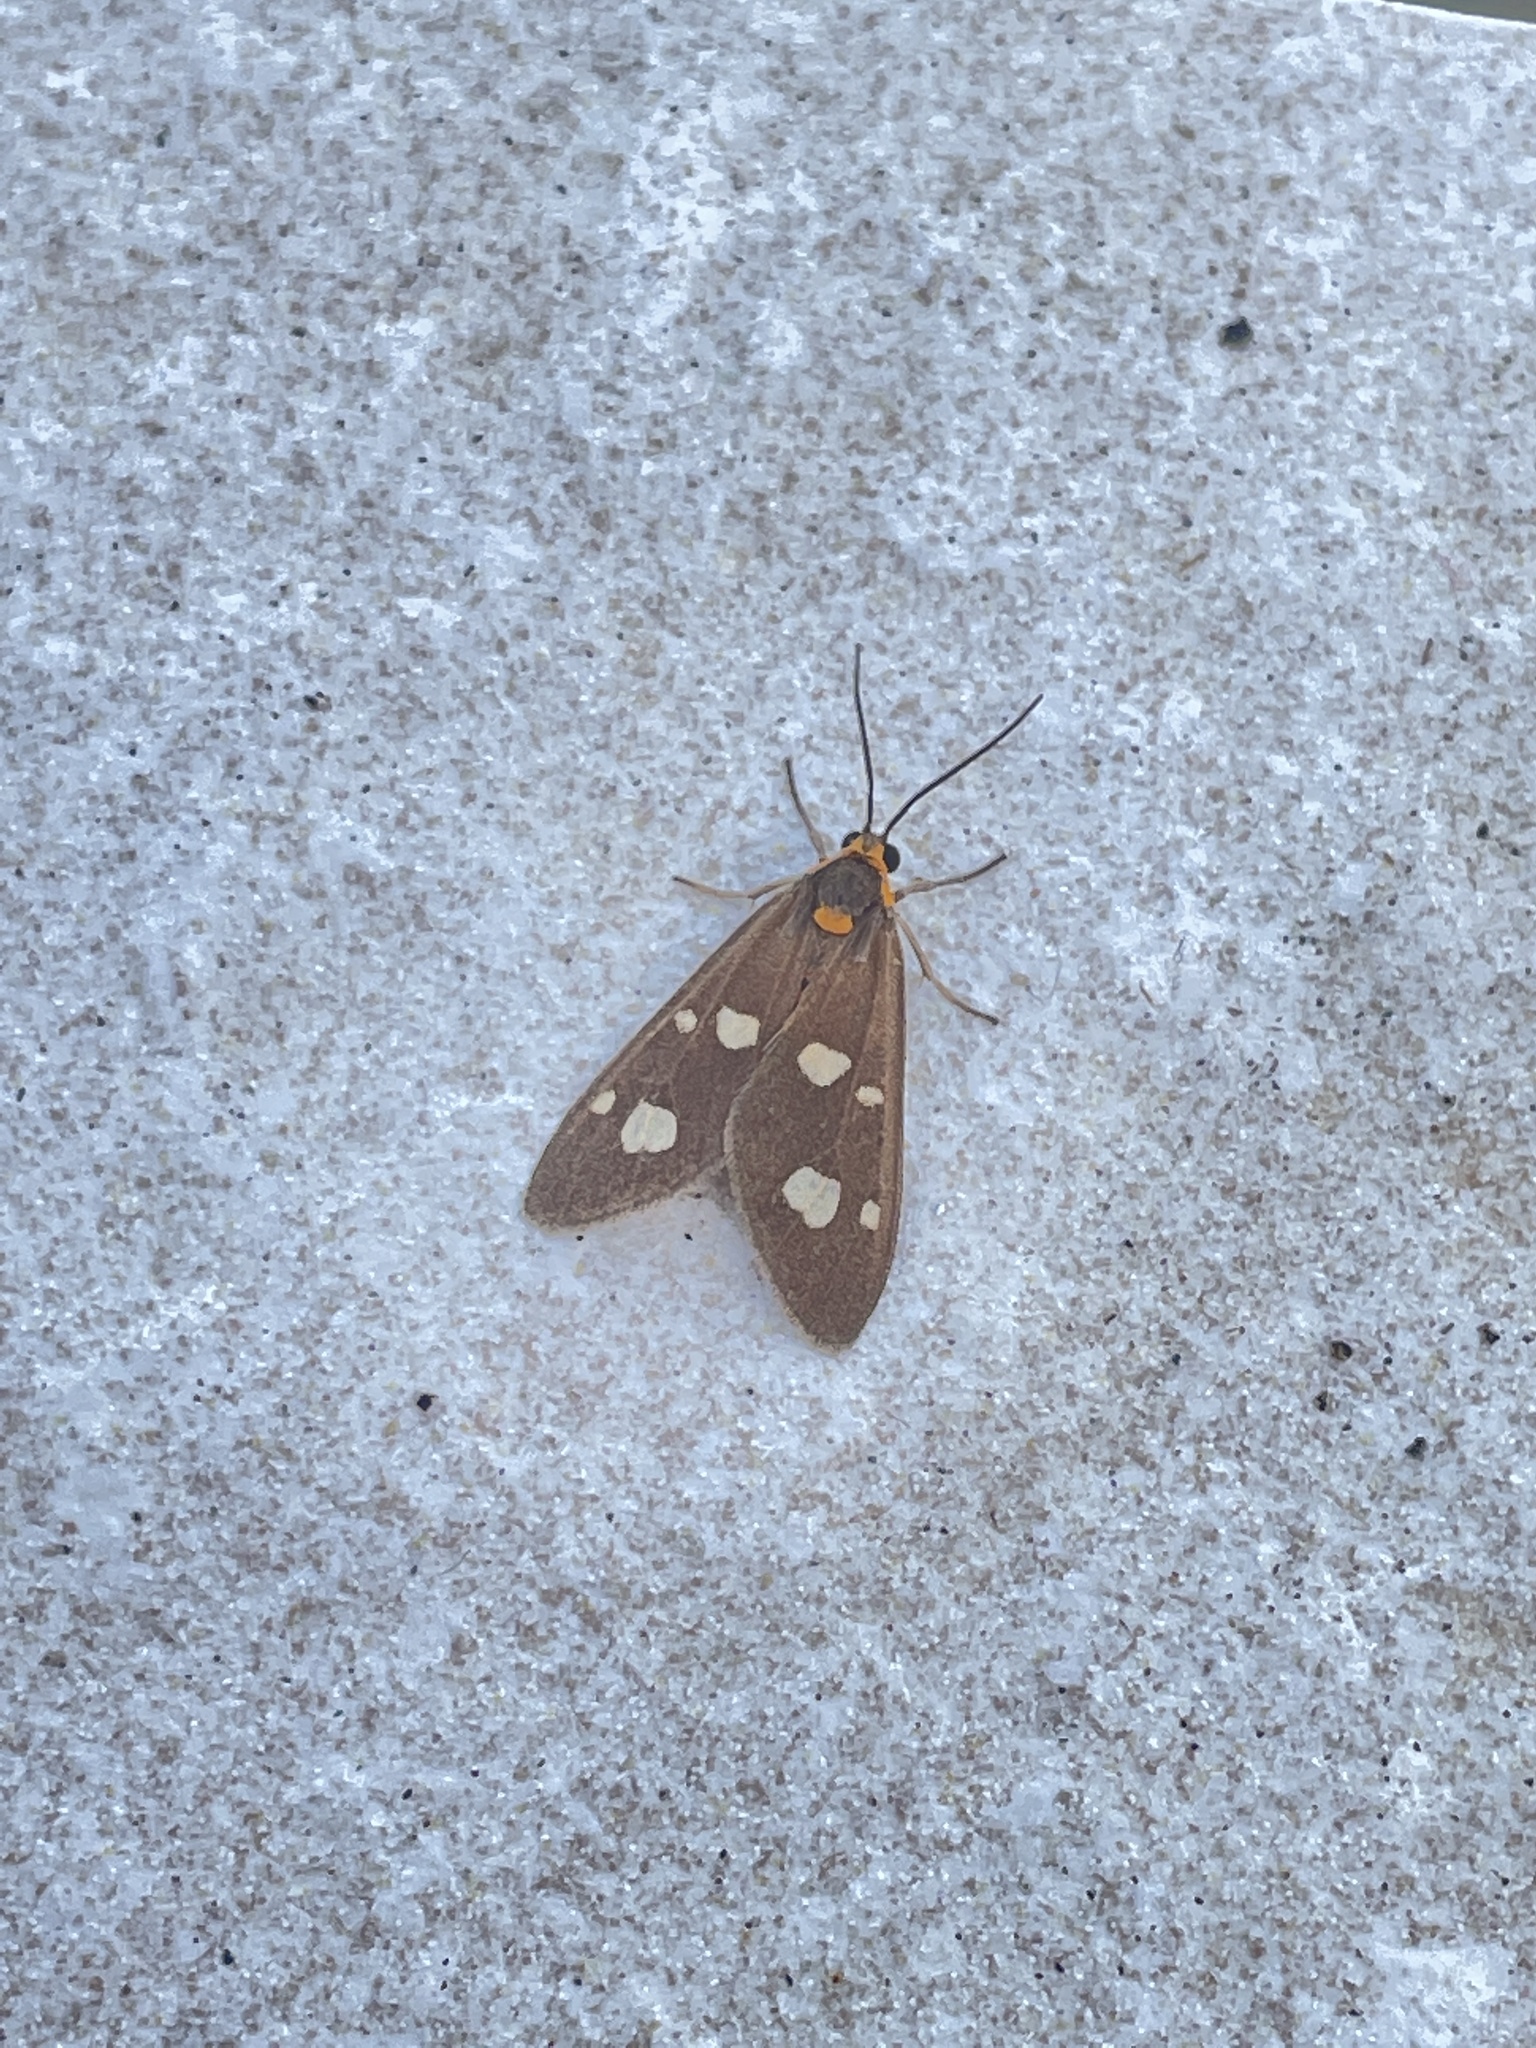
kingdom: Animalia
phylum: Arthropoda
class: Insecta
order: Lepidoptera
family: Erebidae
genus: Dysauxes
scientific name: Dysauxes punctata
